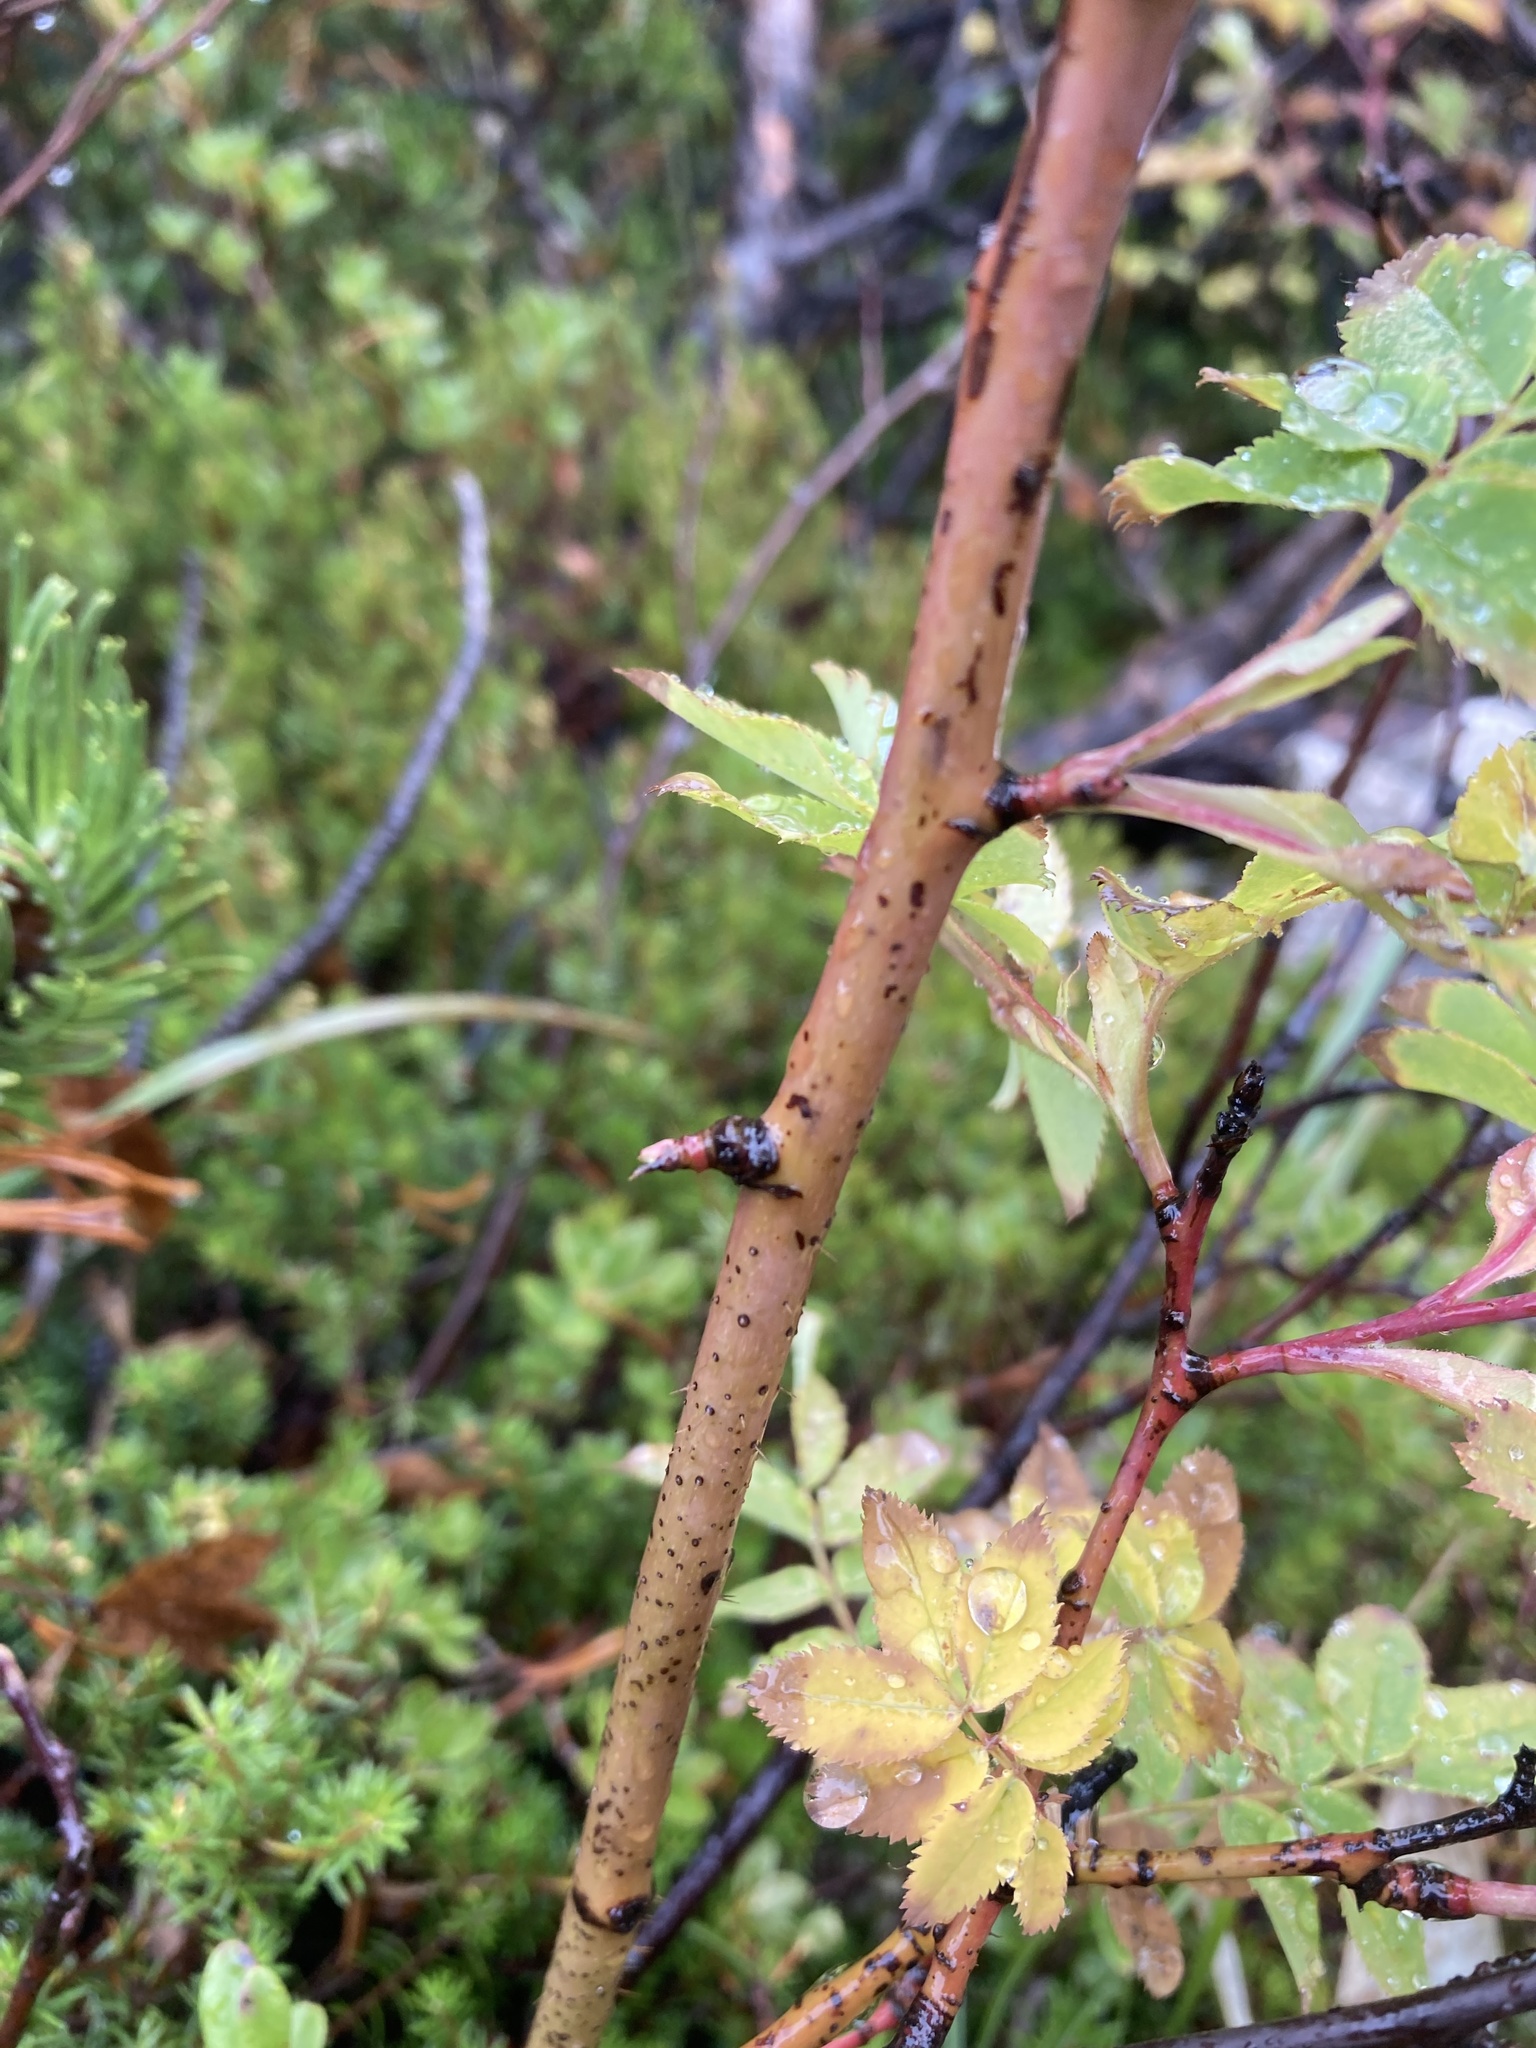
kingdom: Plantae
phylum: Tracheophyta
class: Magnoliopsida
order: Rosales
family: Rosaceae
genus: Rosa
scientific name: Rosa pendulina
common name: Alpine rose
